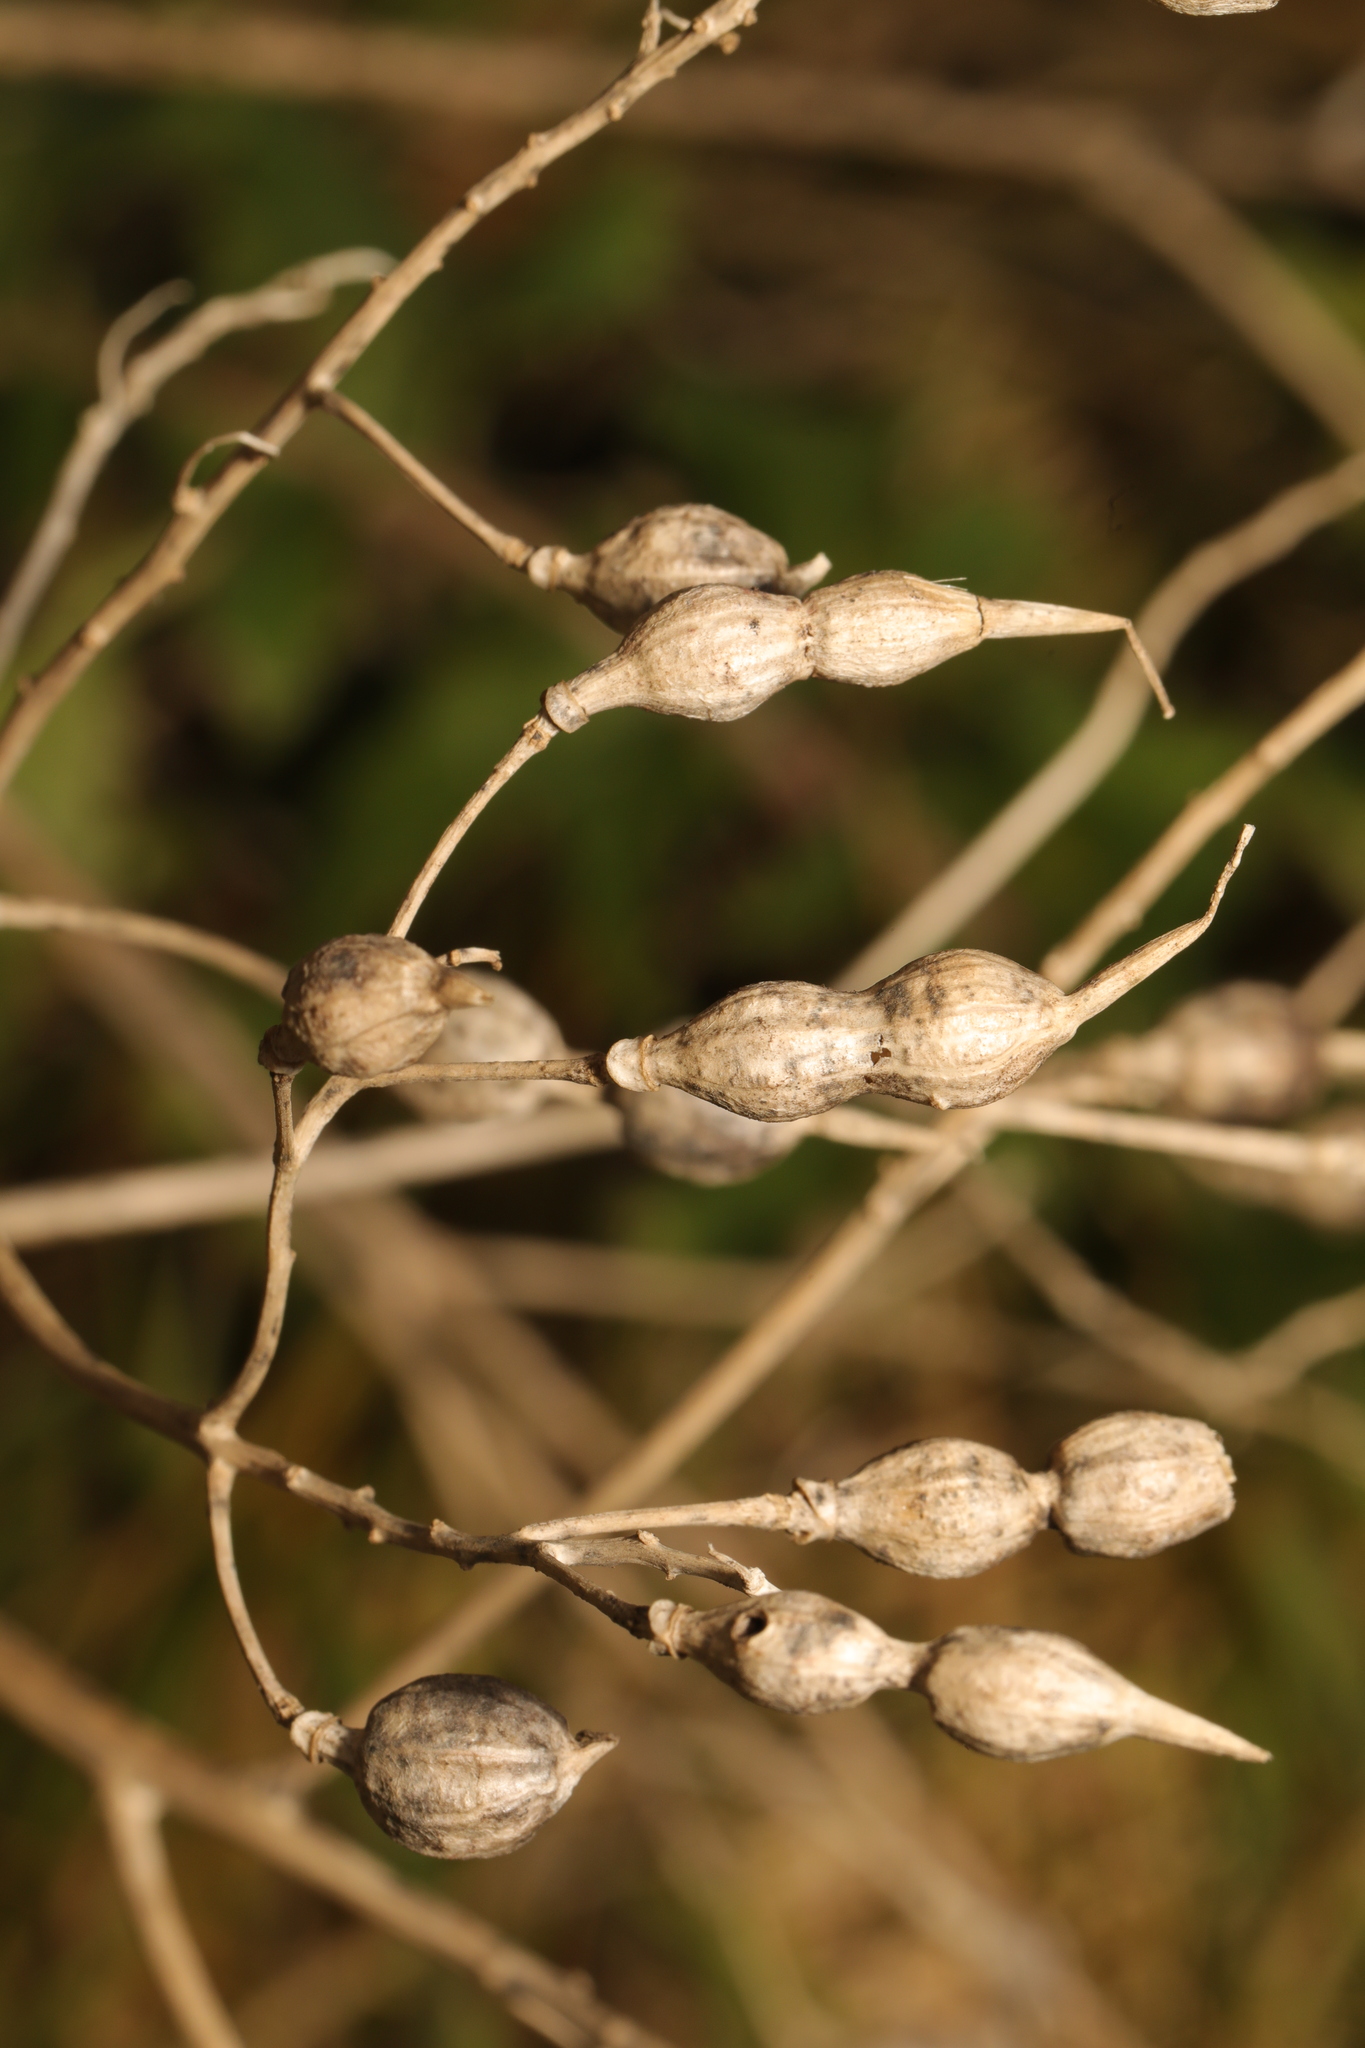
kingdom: Plantae
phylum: Tracheophyta
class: Magnoliopsida
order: Brassicales
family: Brassicaceae
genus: Raphanus
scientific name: Raphanus raphanistrum
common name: Wild radish
